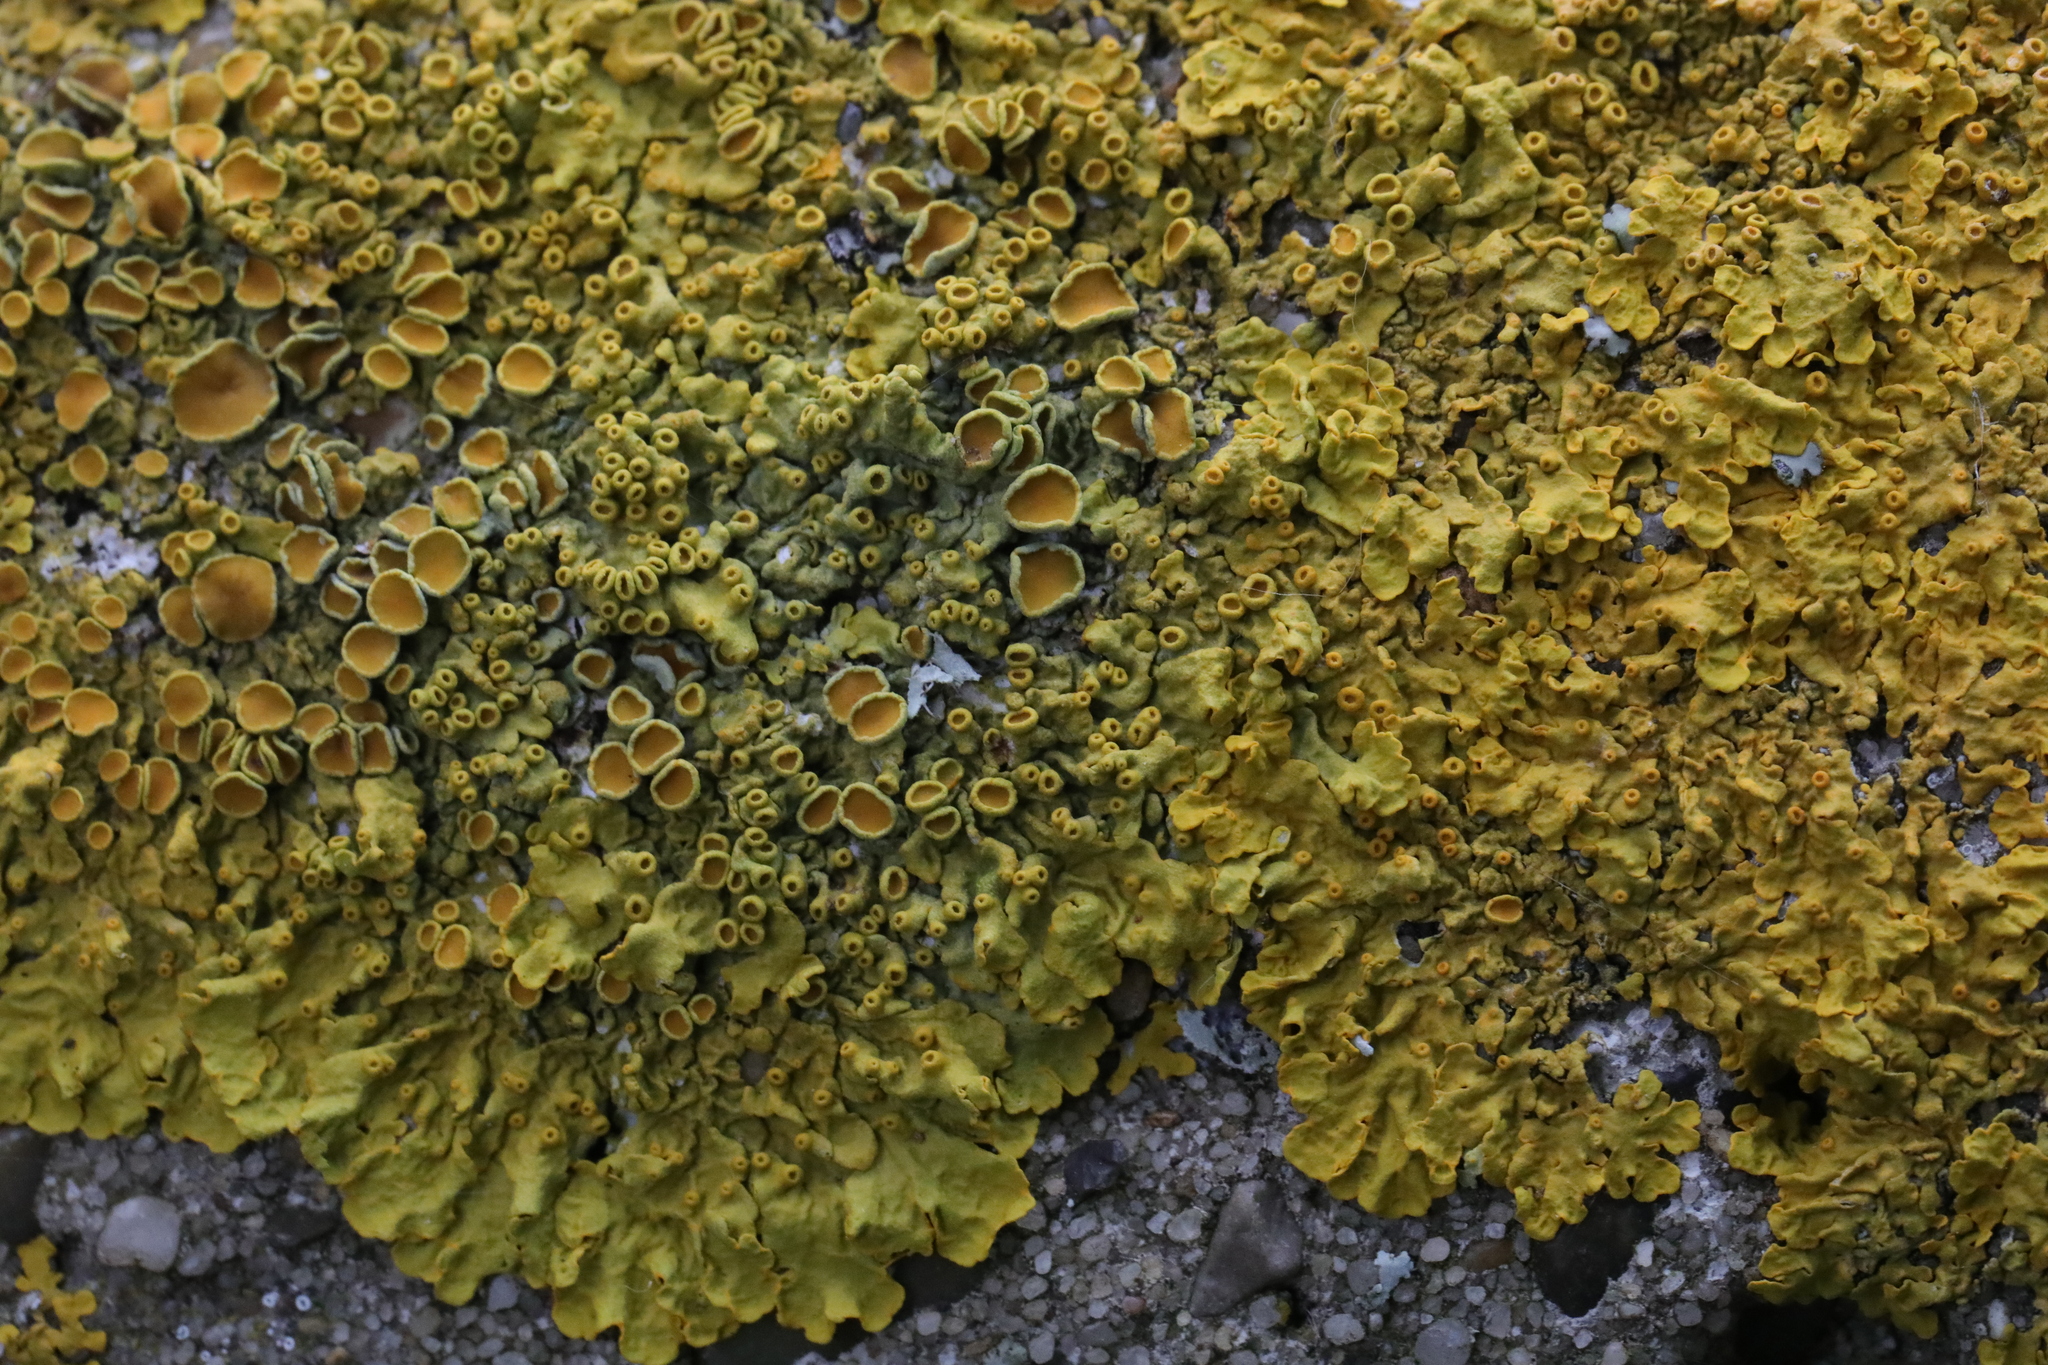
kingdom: Fungi
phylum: Ascomycota
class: Lecanoromycetes
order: Teloschistales
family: Teloschistaceae
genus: Xanthoria
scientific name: Xanthoria parietina
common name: Common orange lichen
